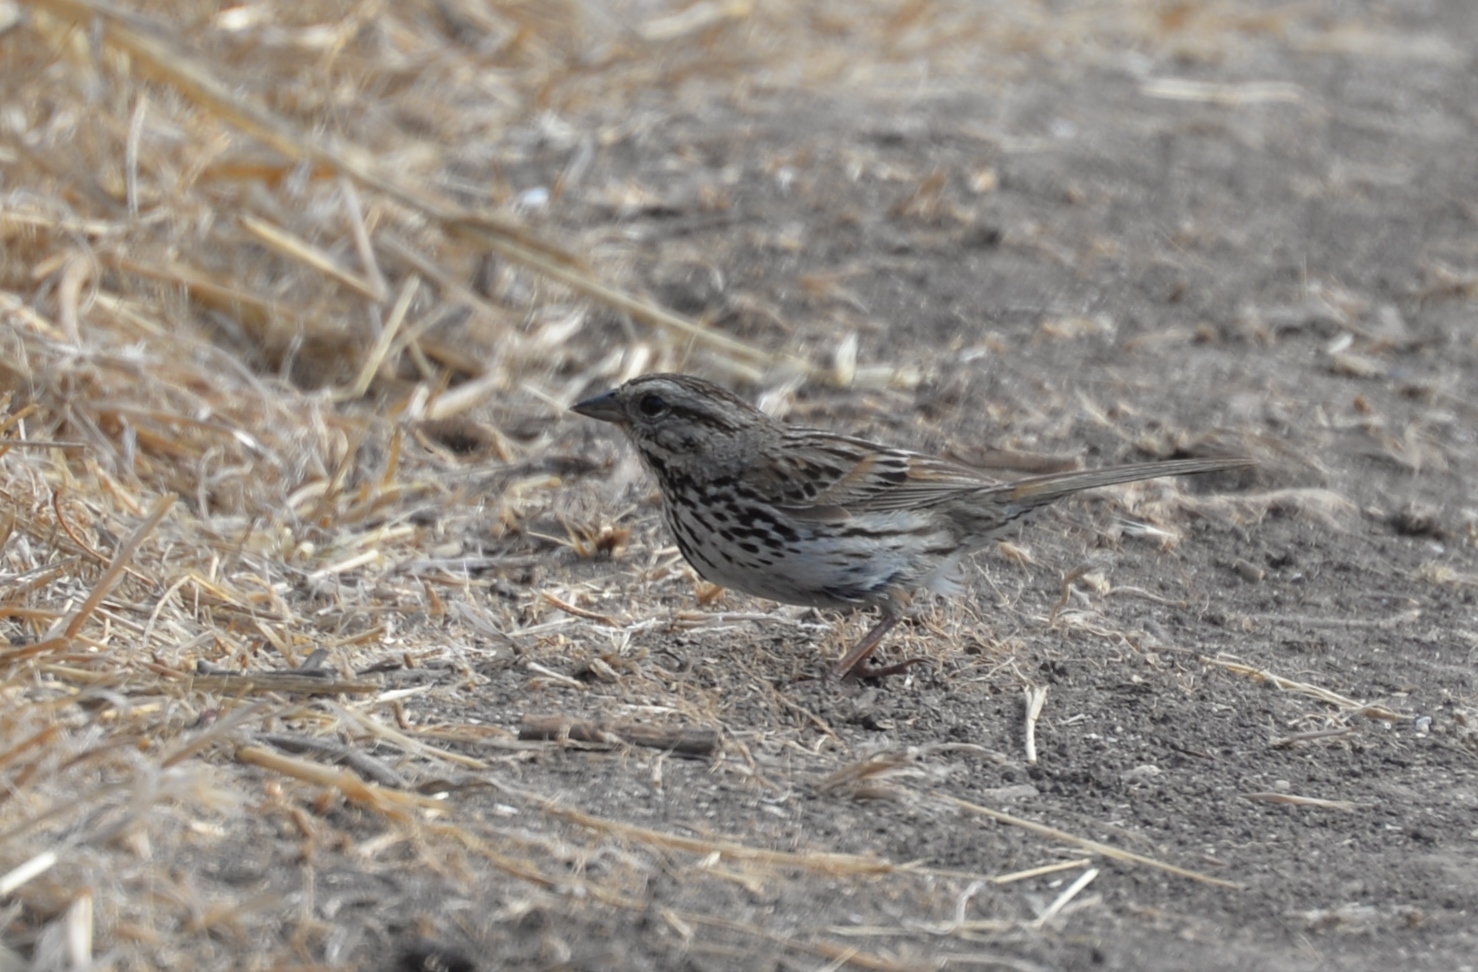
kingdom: Animalia
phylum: Chordata
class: Aves
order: Passeriformes
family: Passerellidae
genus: Melospiza
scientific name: Melospiza melodia
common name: Song sparrow
